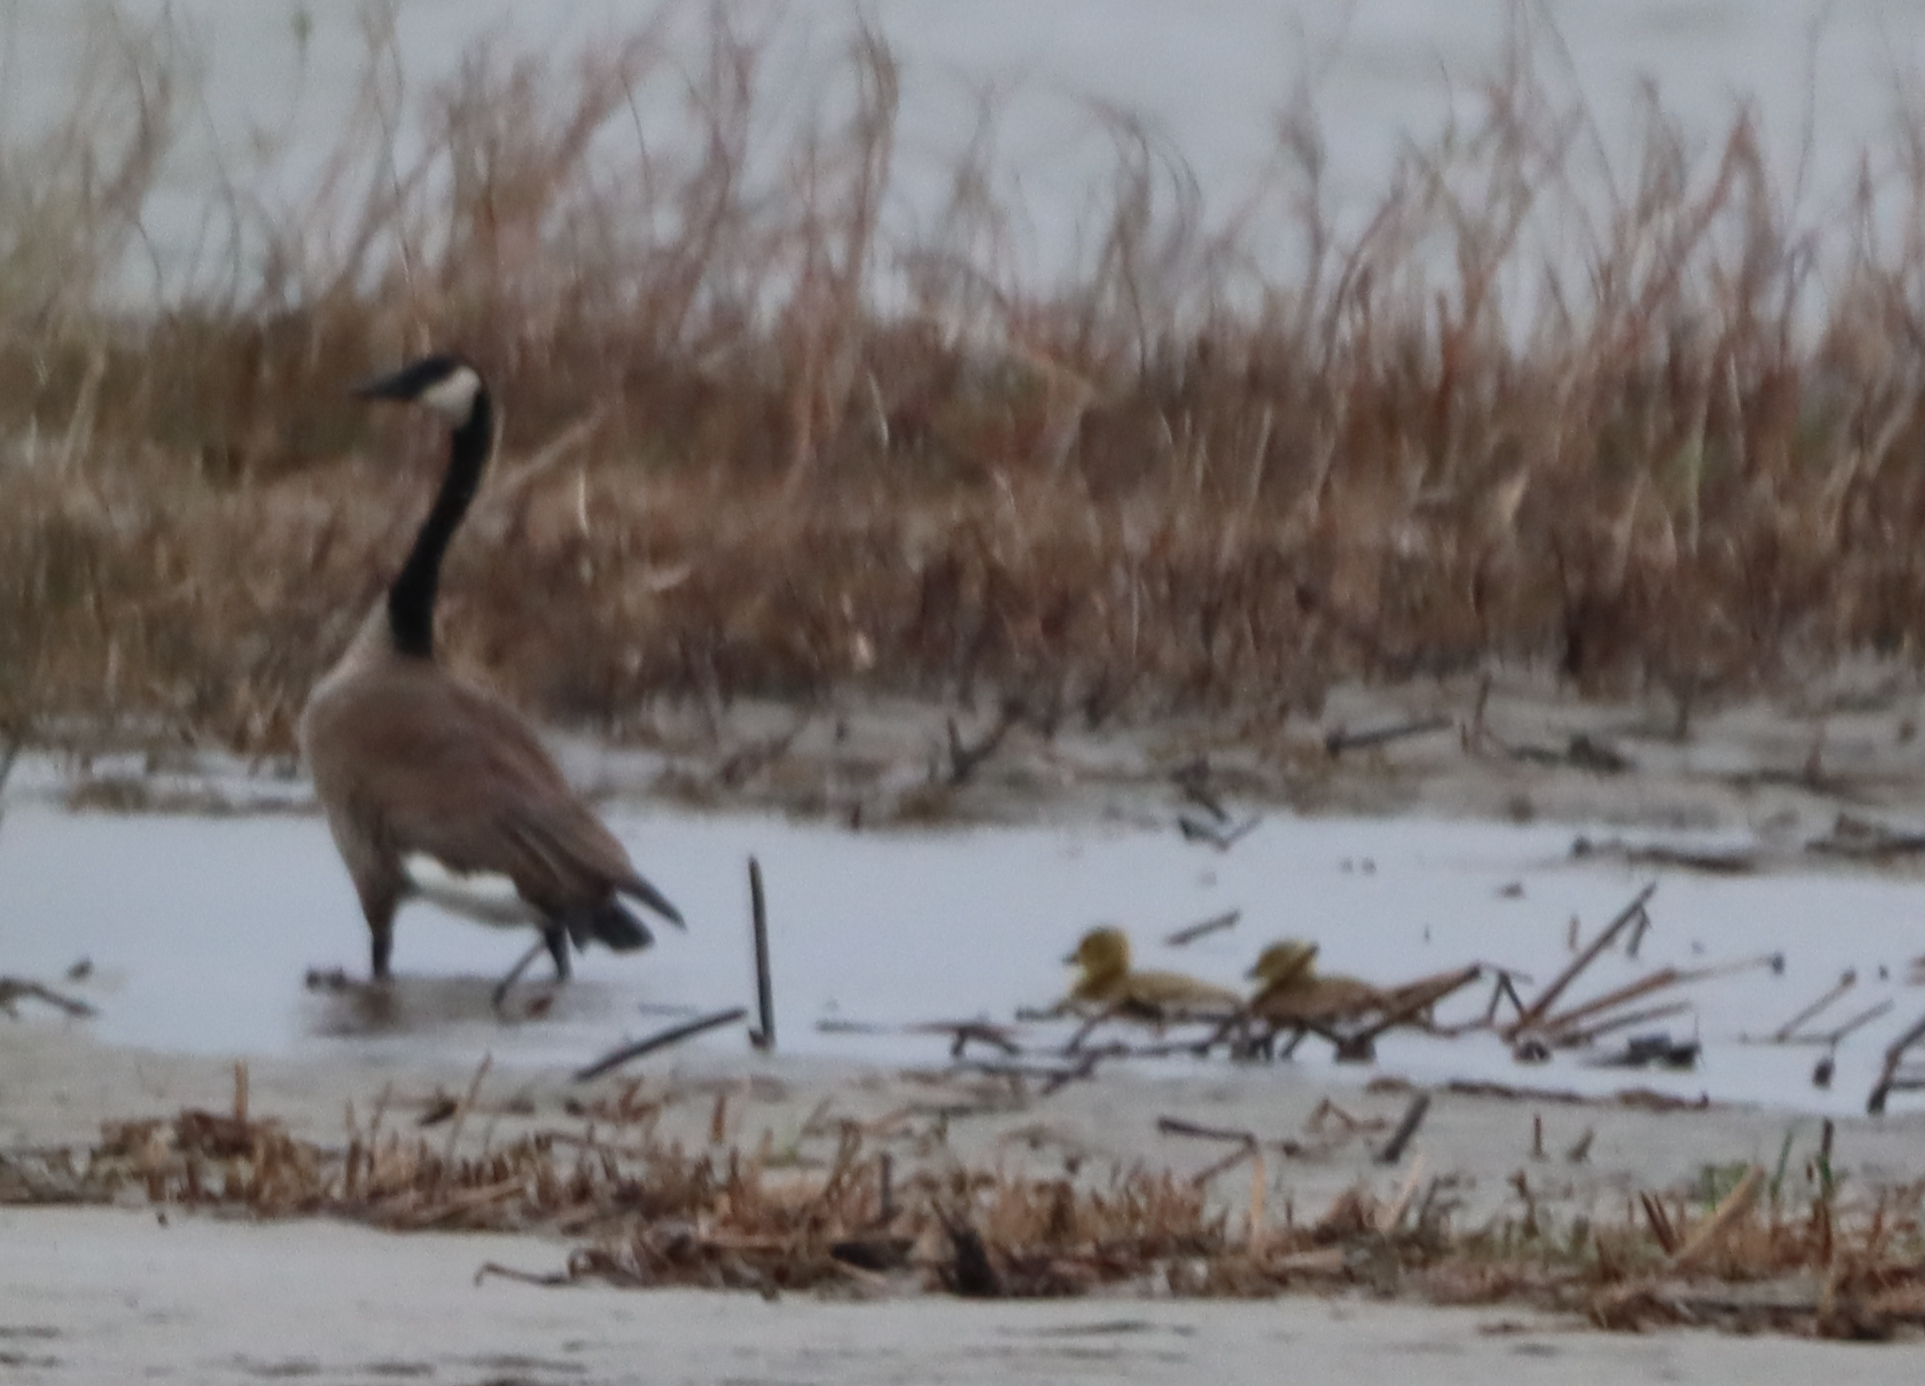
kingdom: Animalia
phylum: Chordata
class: Aves
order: Anseriformes
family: Anatidae
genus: Branta
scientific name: Branta canadensis
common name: Canada goose
